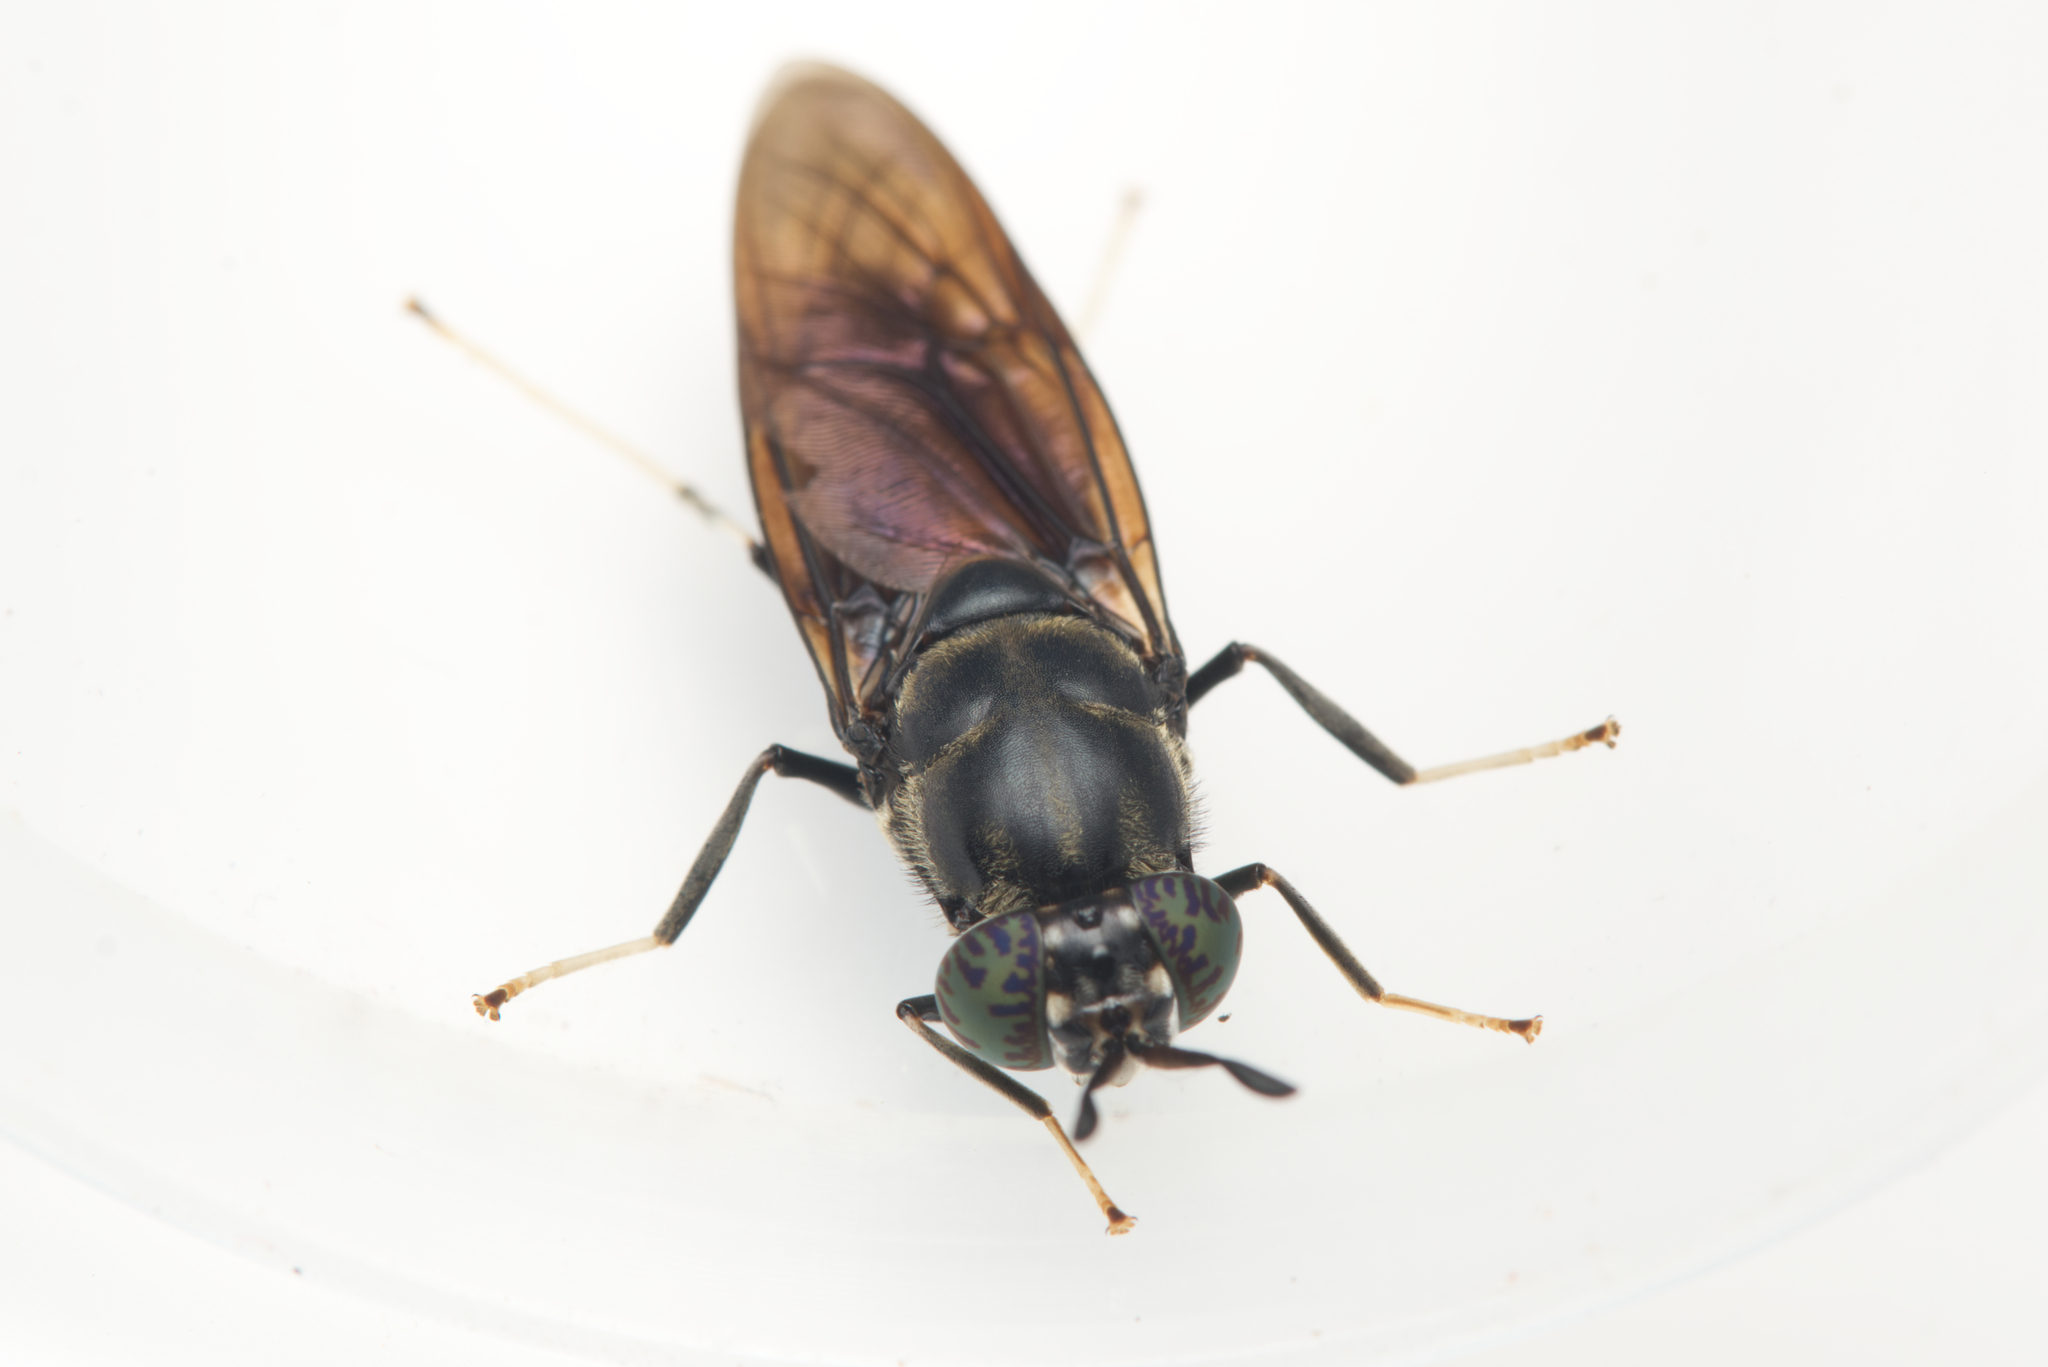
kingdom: Animalia
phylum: Arthropoda
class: Insecta
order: Diptera
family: Stratiomyidae
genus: Hermetia
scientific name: Hermetia illucens
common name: Black soldier fly
